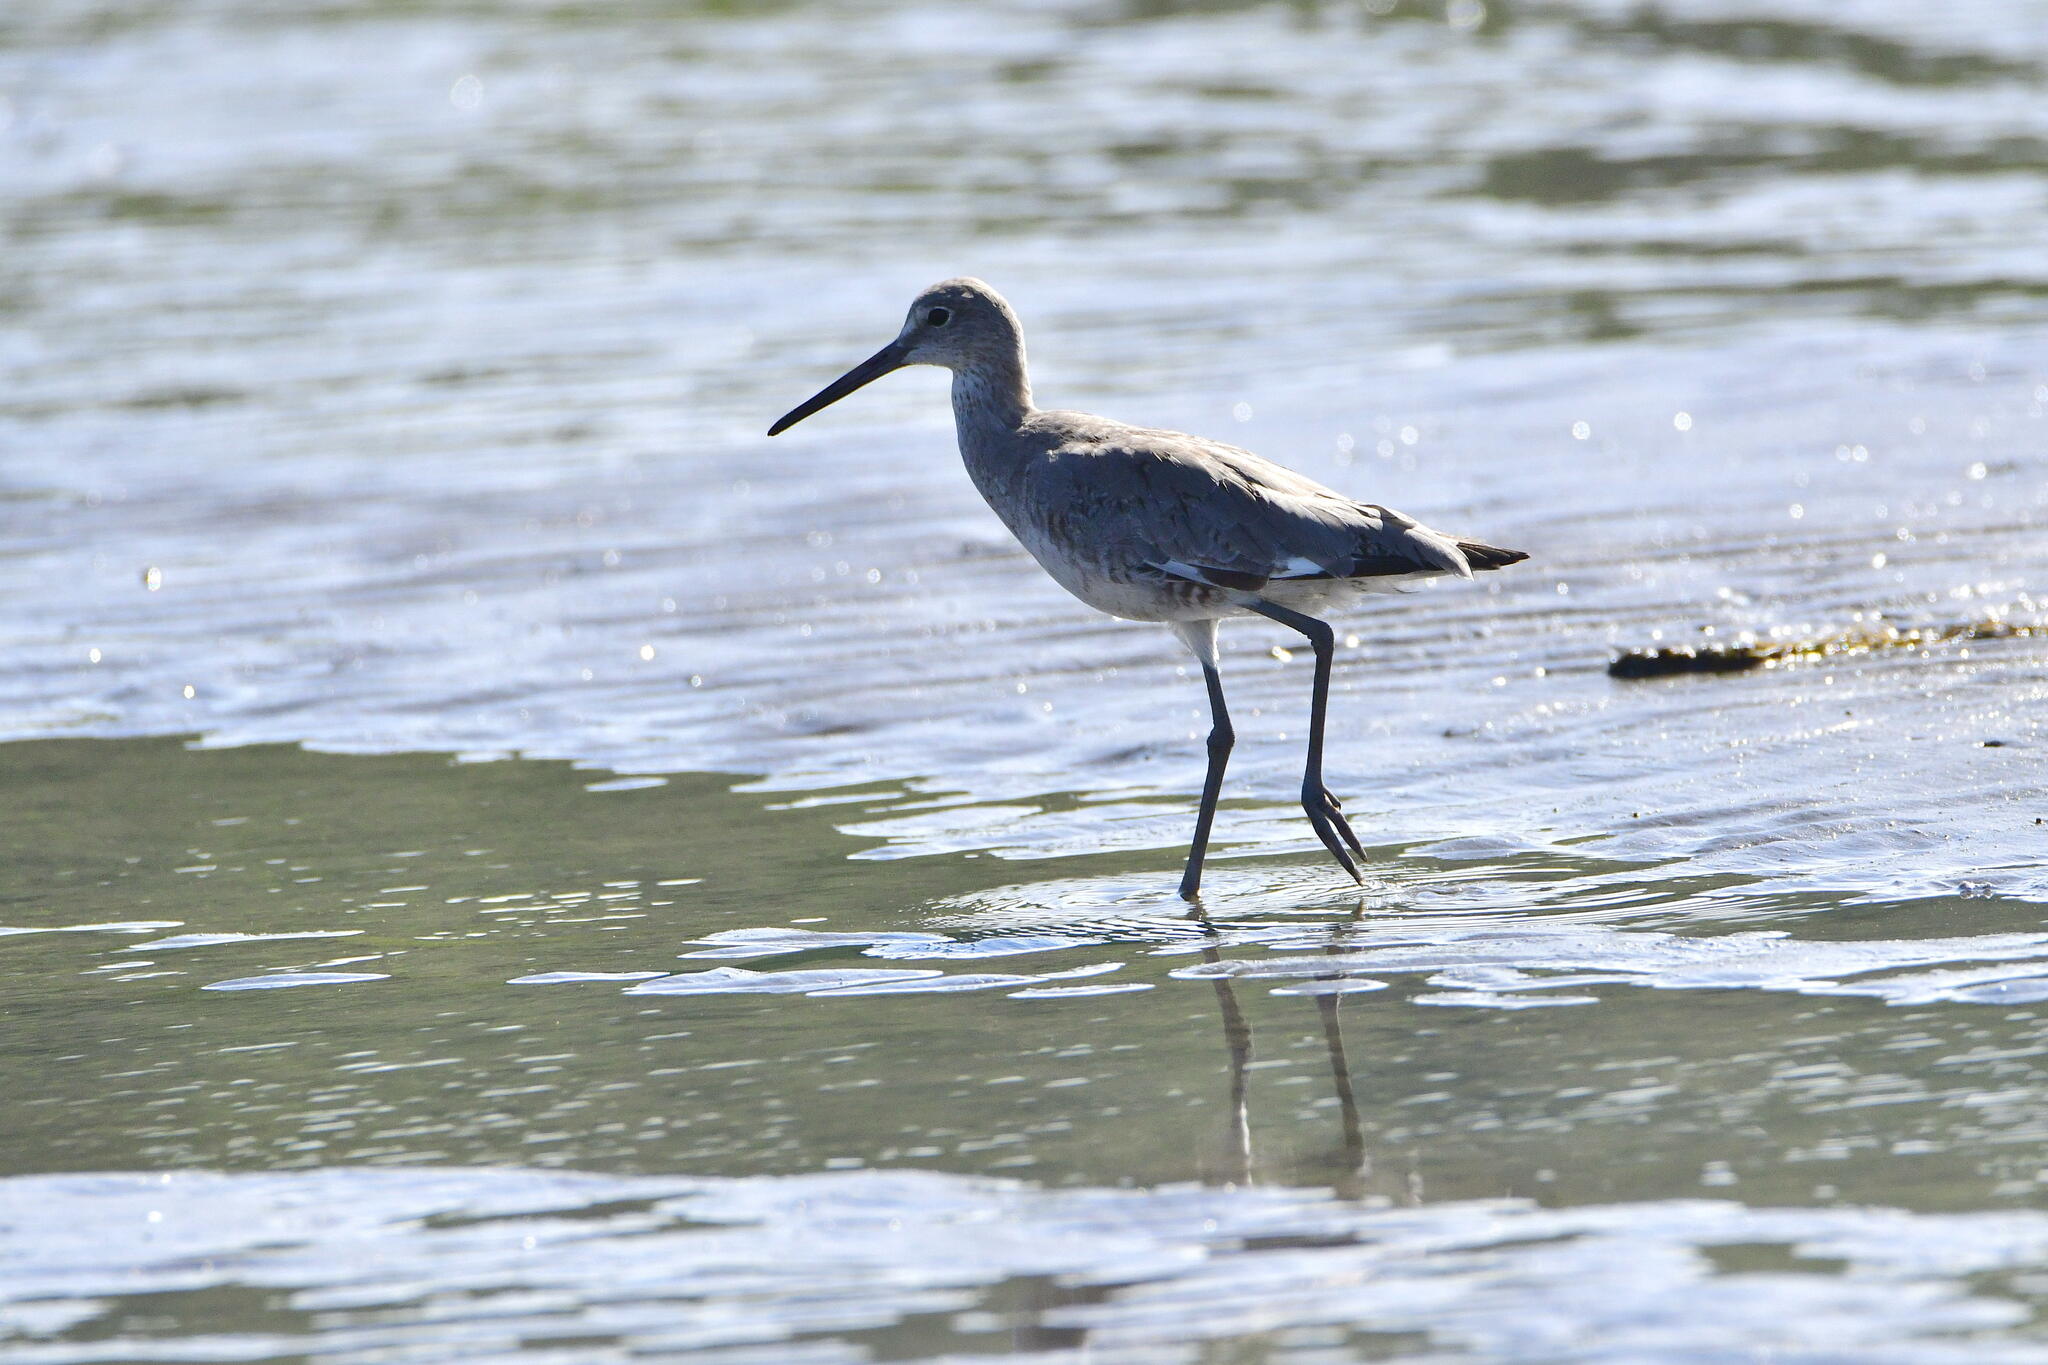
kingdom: Animalia
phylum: Chordata
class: Aves
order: Charadriiformes
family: Scolopacidae
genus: Tringa
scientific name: Tringa semipalmata
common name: Willet
